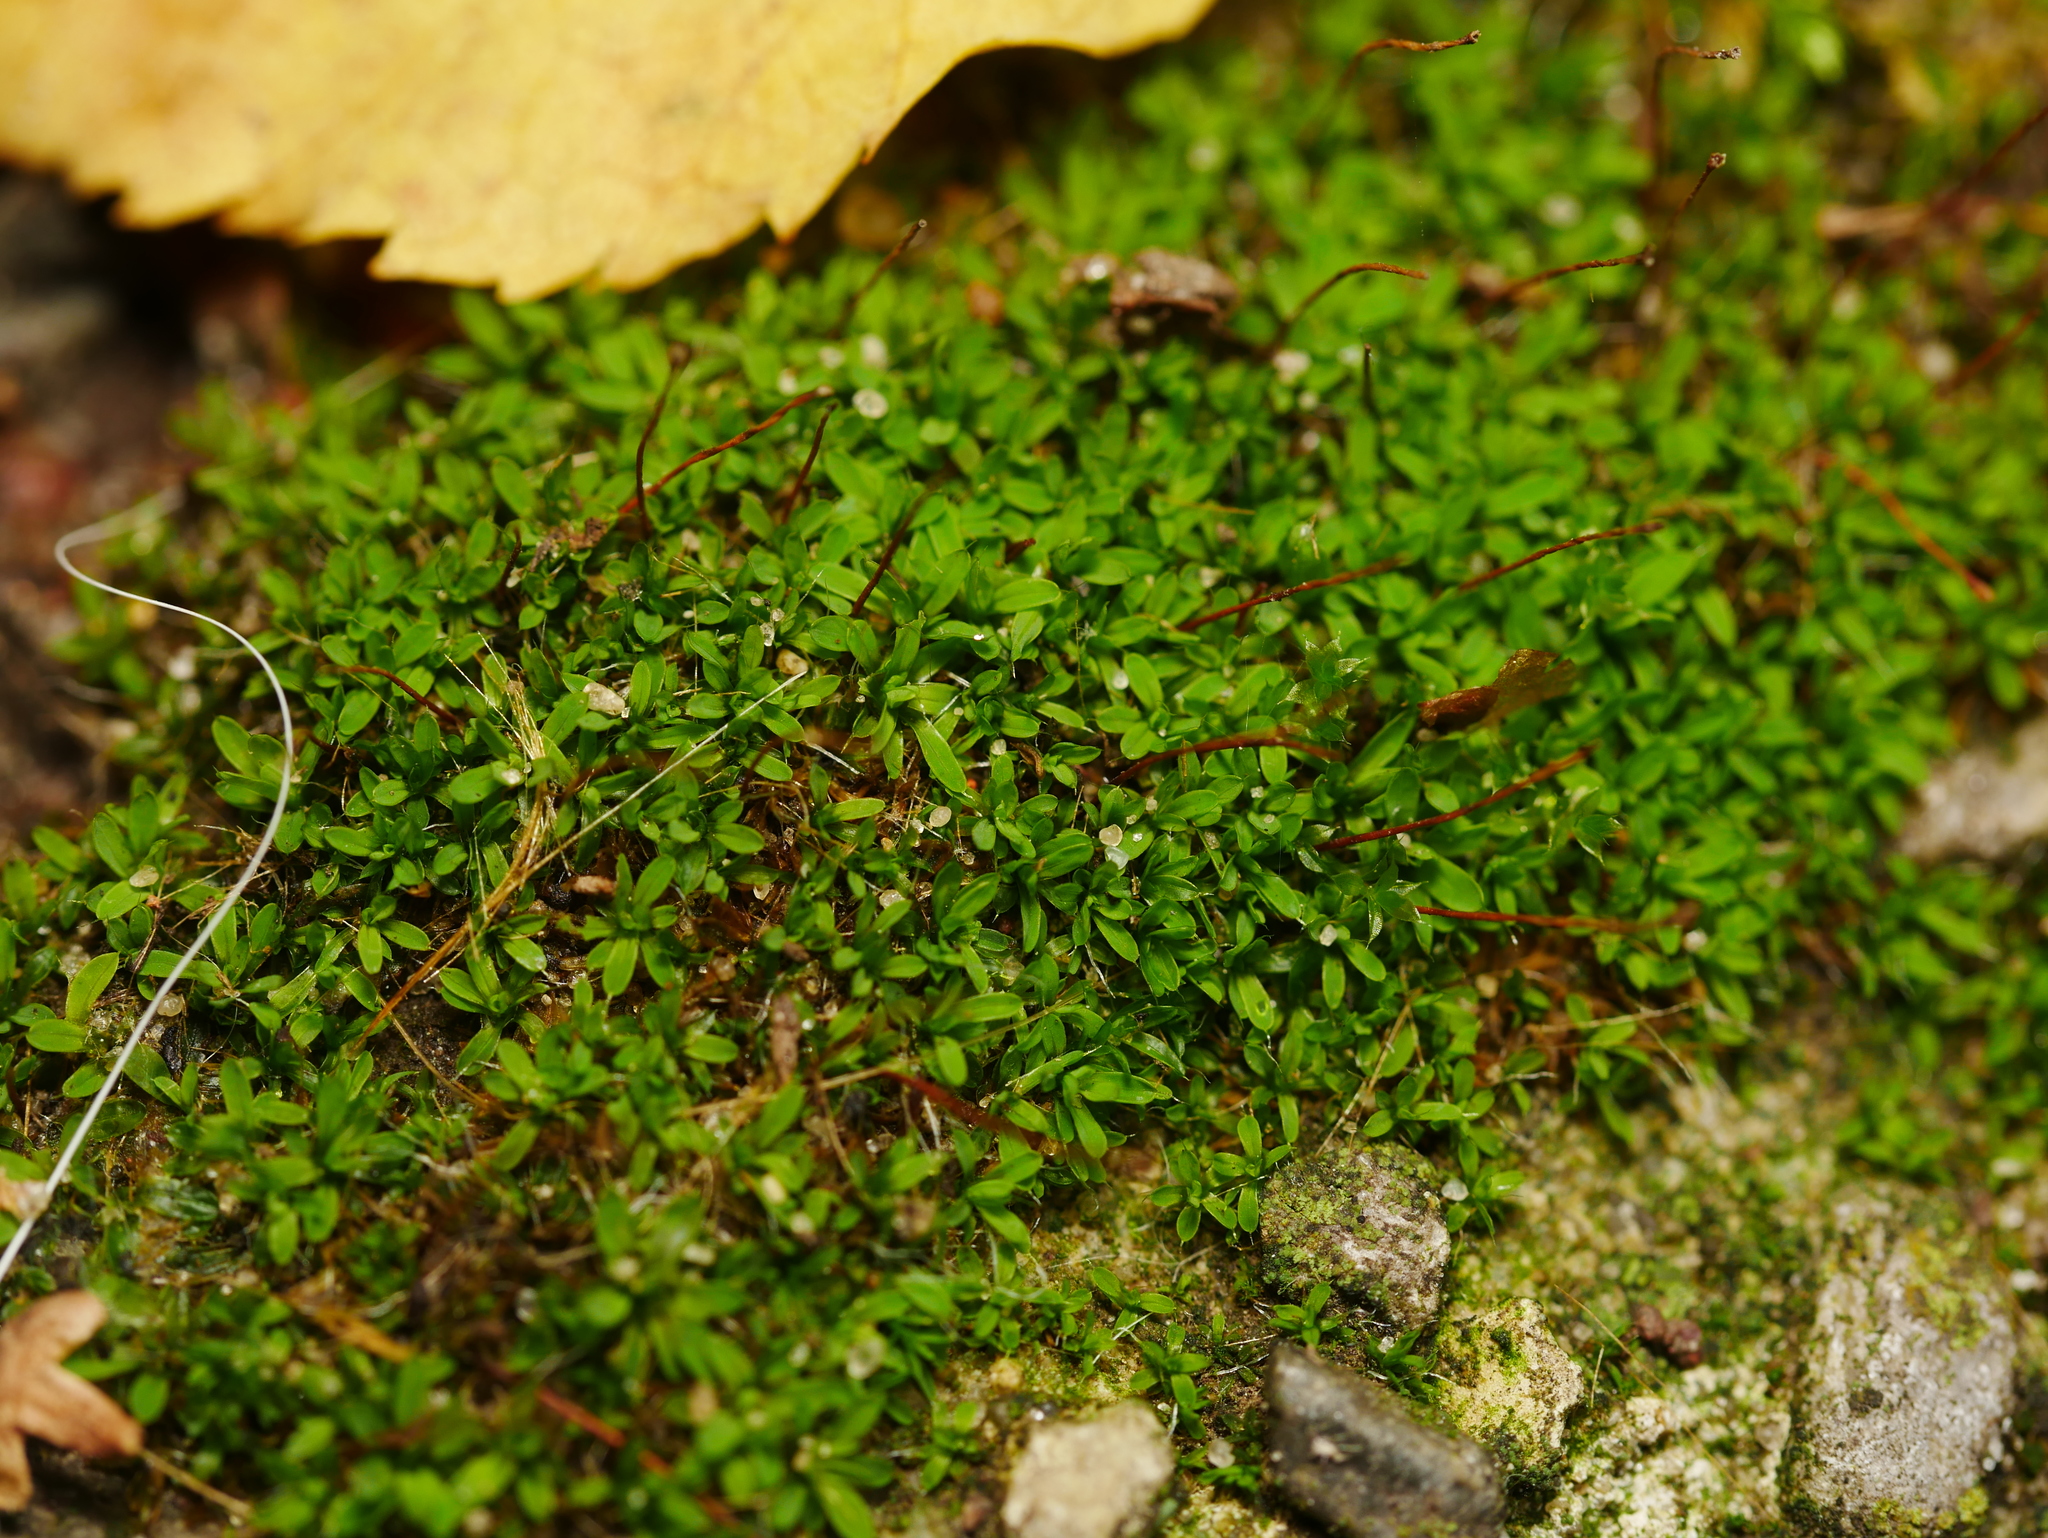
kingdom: Plantae
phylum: Bryophyta
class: Bryopsida
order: Pottiales
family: Pottiaceae
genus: Tortula
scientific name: Tortula muralis
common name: Wall screw-moss
